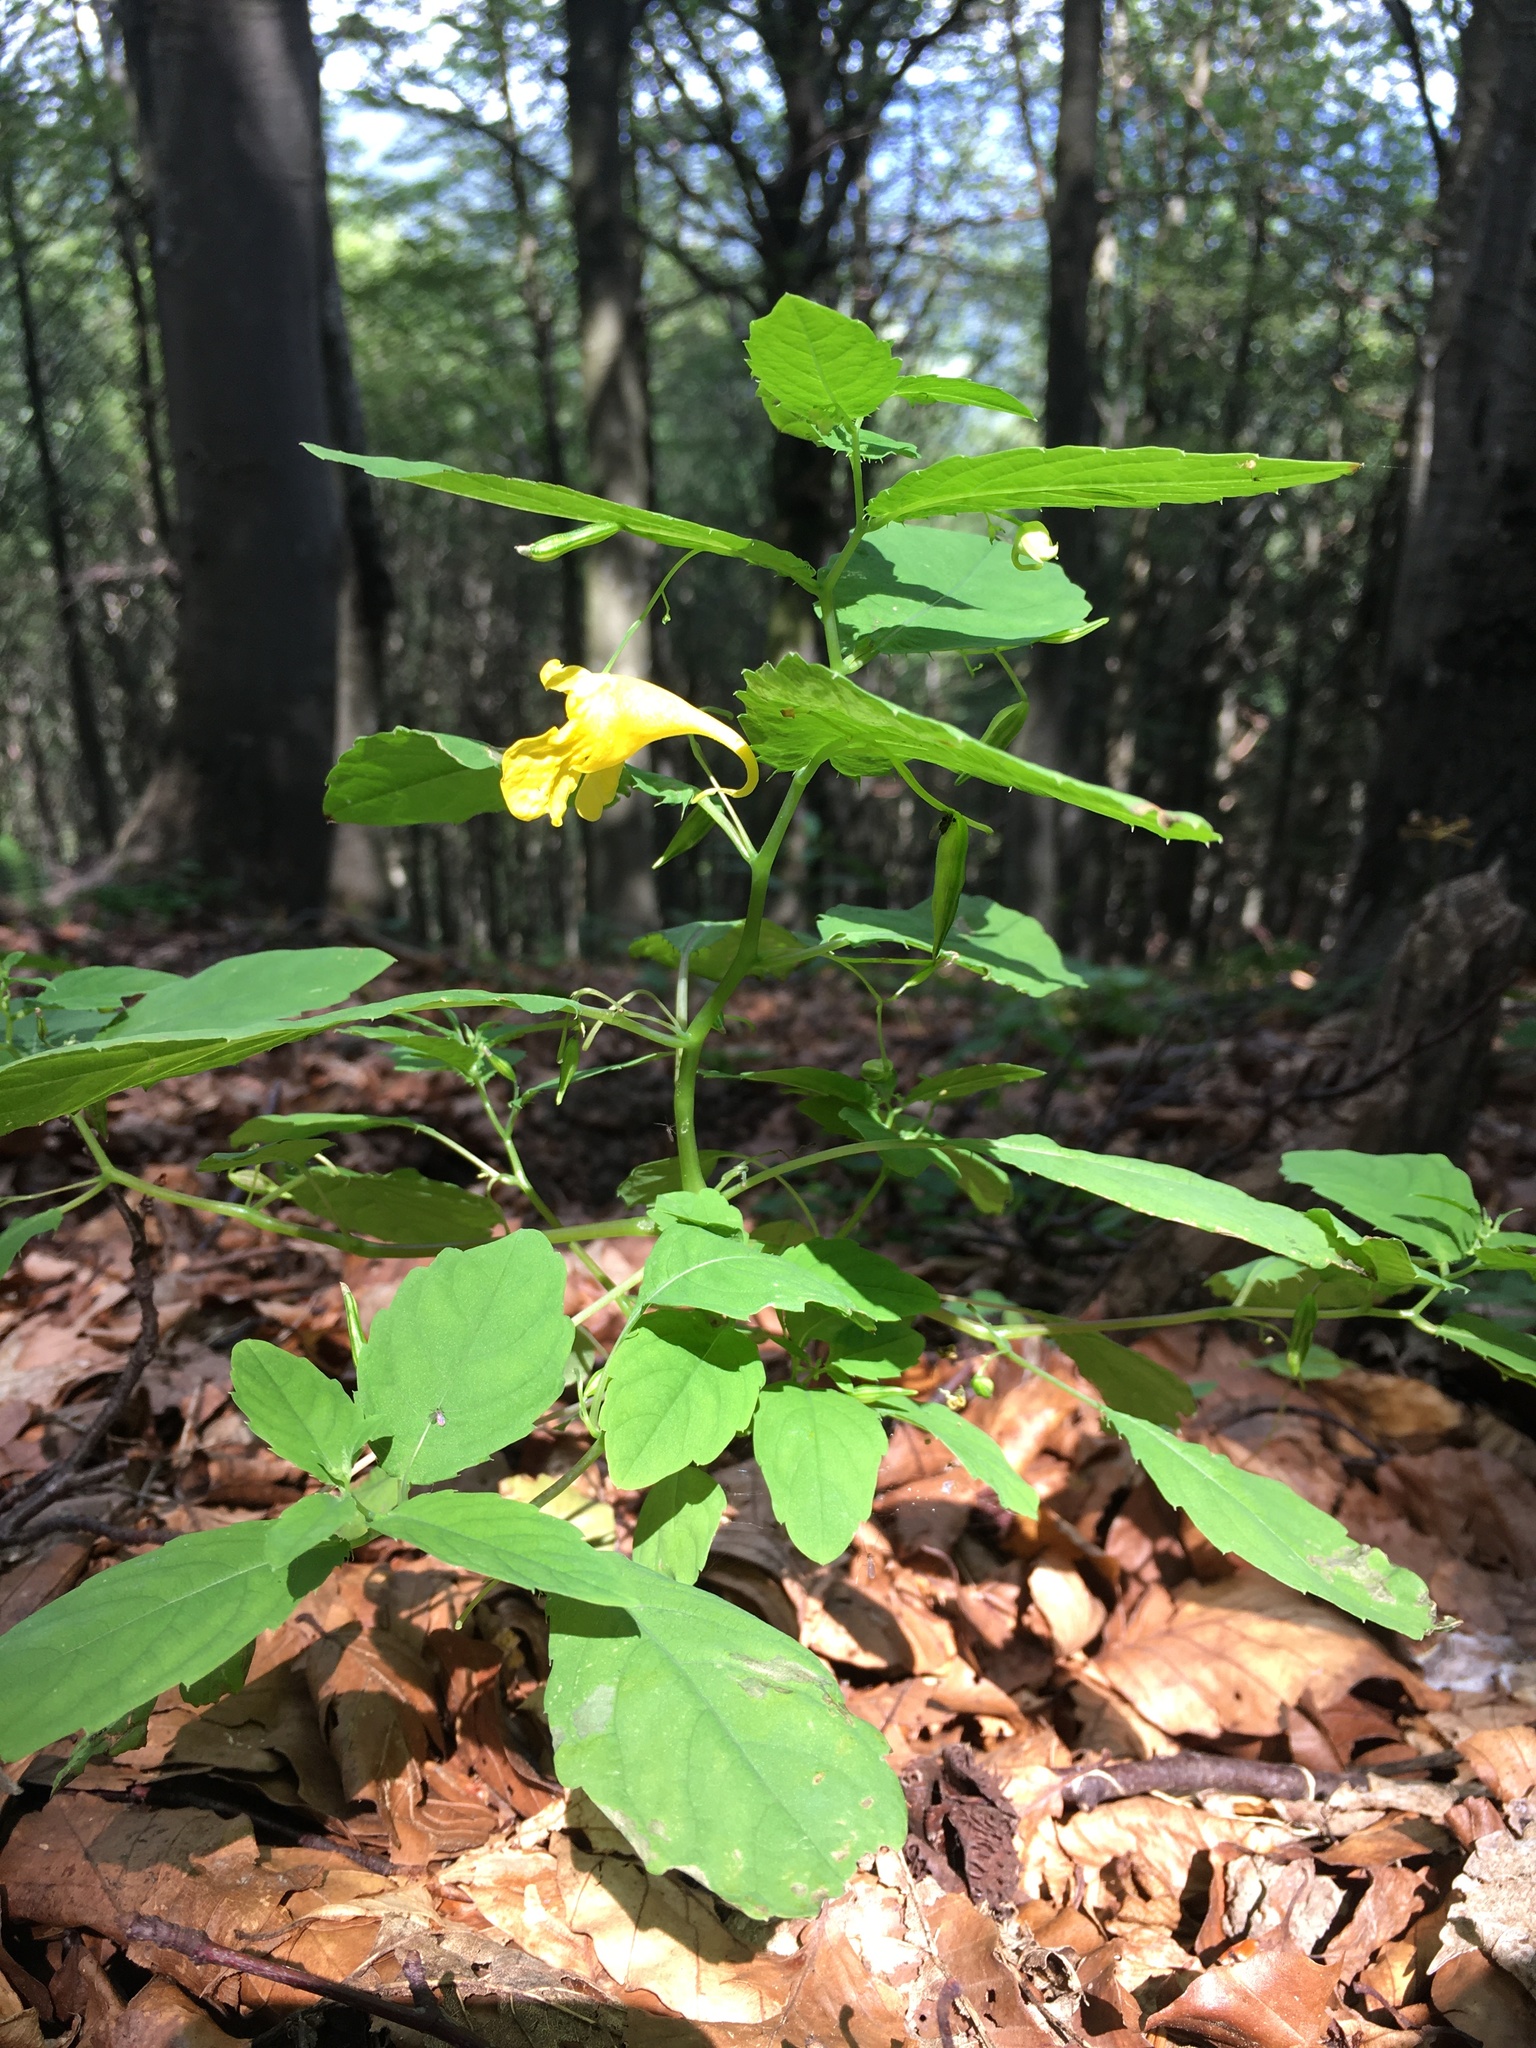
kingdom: Plantae
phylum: Tracheophyta
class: Magnoliopsida
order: Ericales
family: Balsaminaceae
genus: Impatiens
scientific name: Impatiens noli-tangere
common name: Touch-me-not balsam
